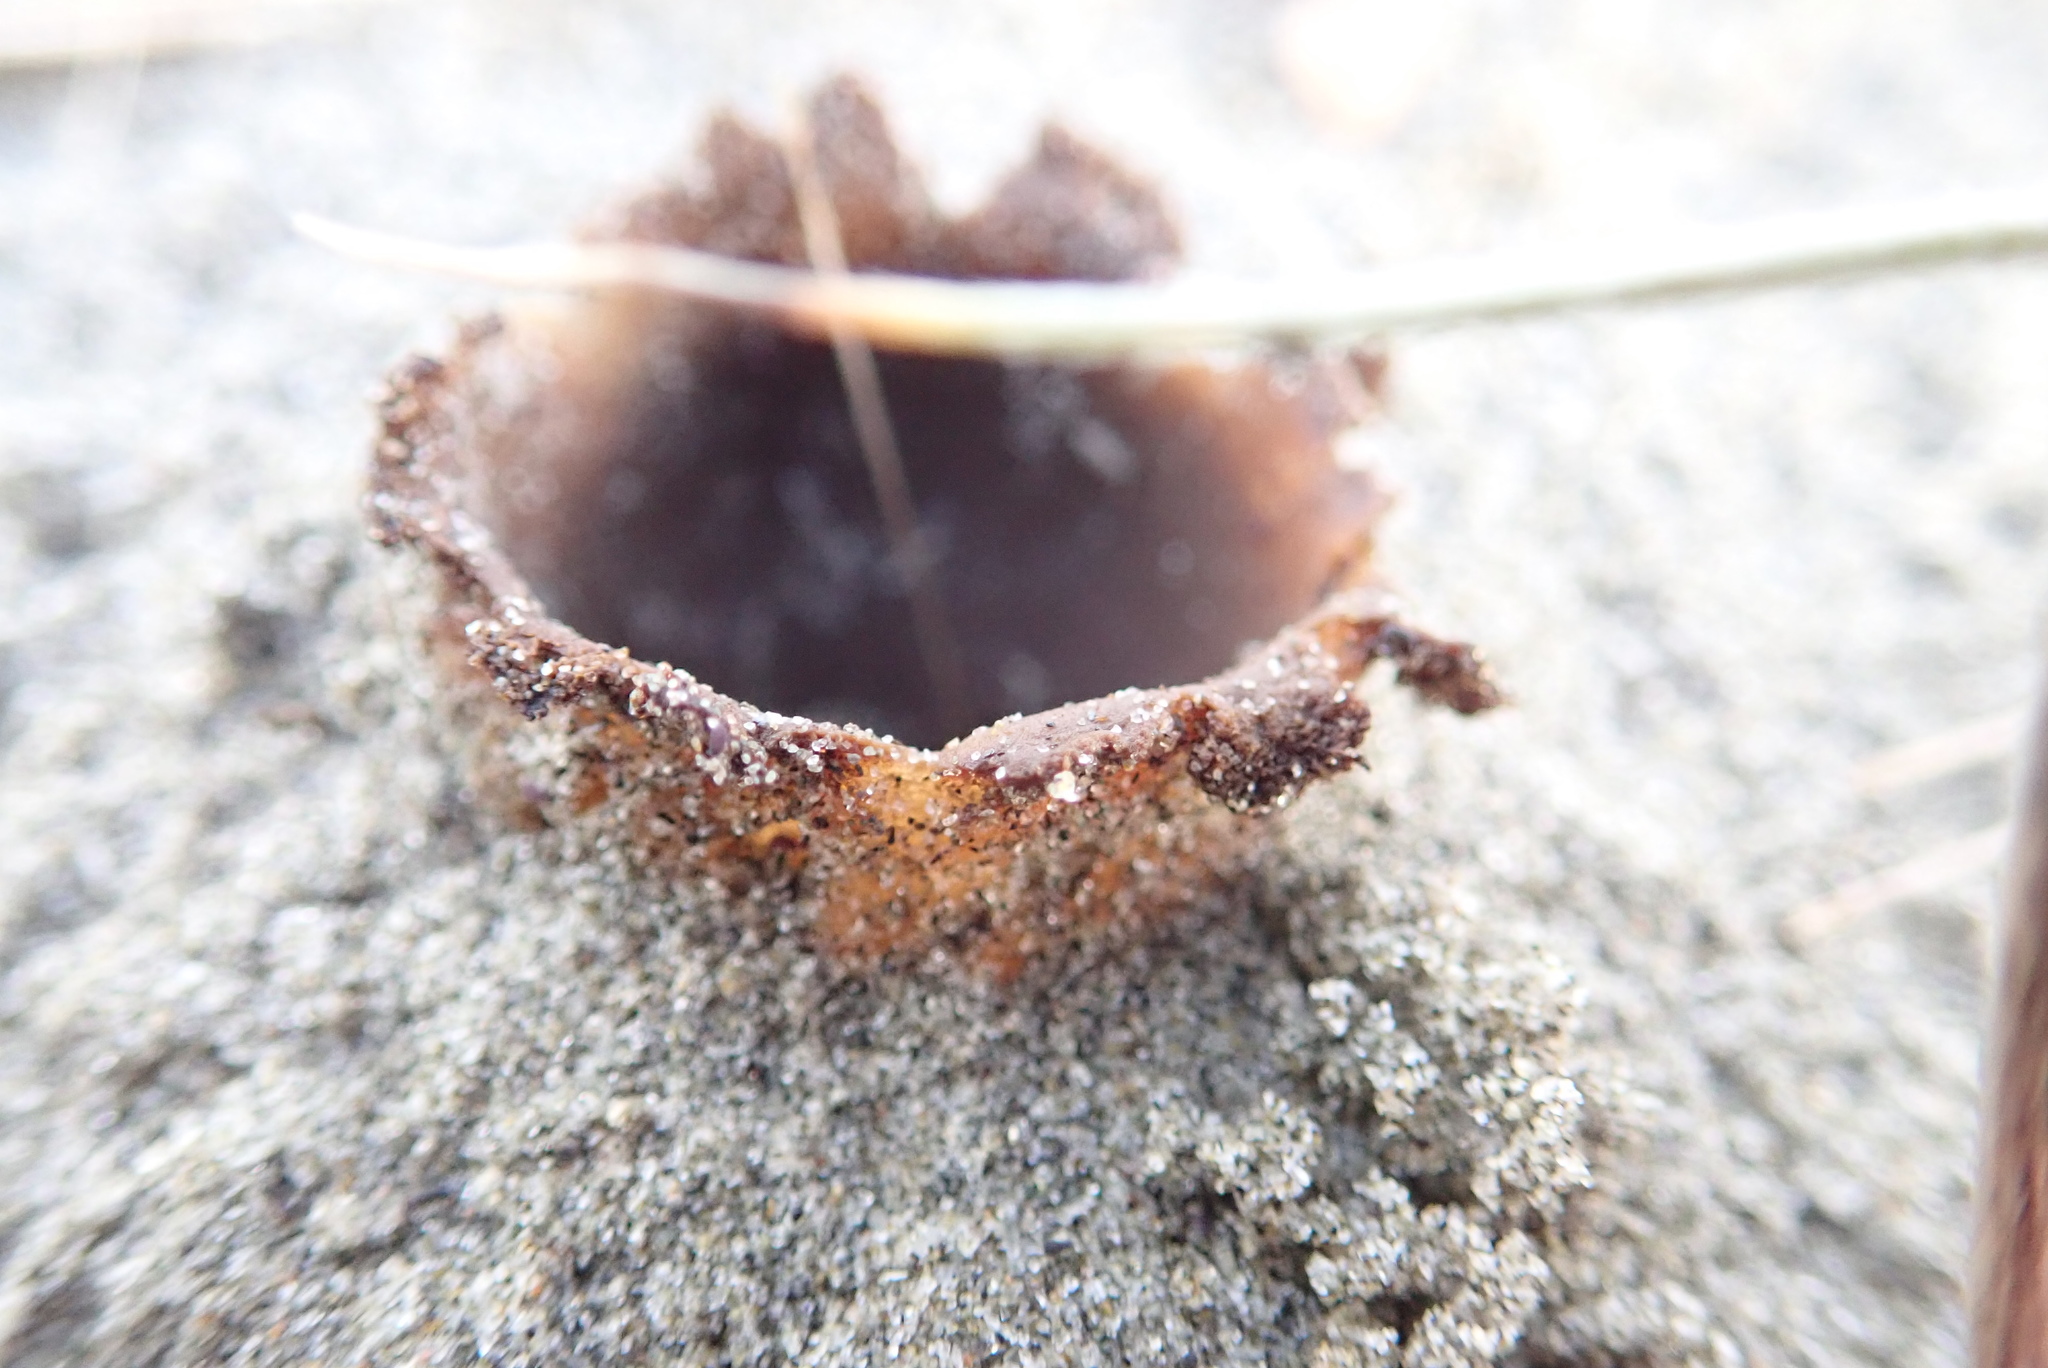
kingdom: Fungi
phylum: Ascomycota
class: Pezizomycetes
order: Pezizales
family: Pezizaceae
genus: Peziza
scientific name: Peziza oceanica
